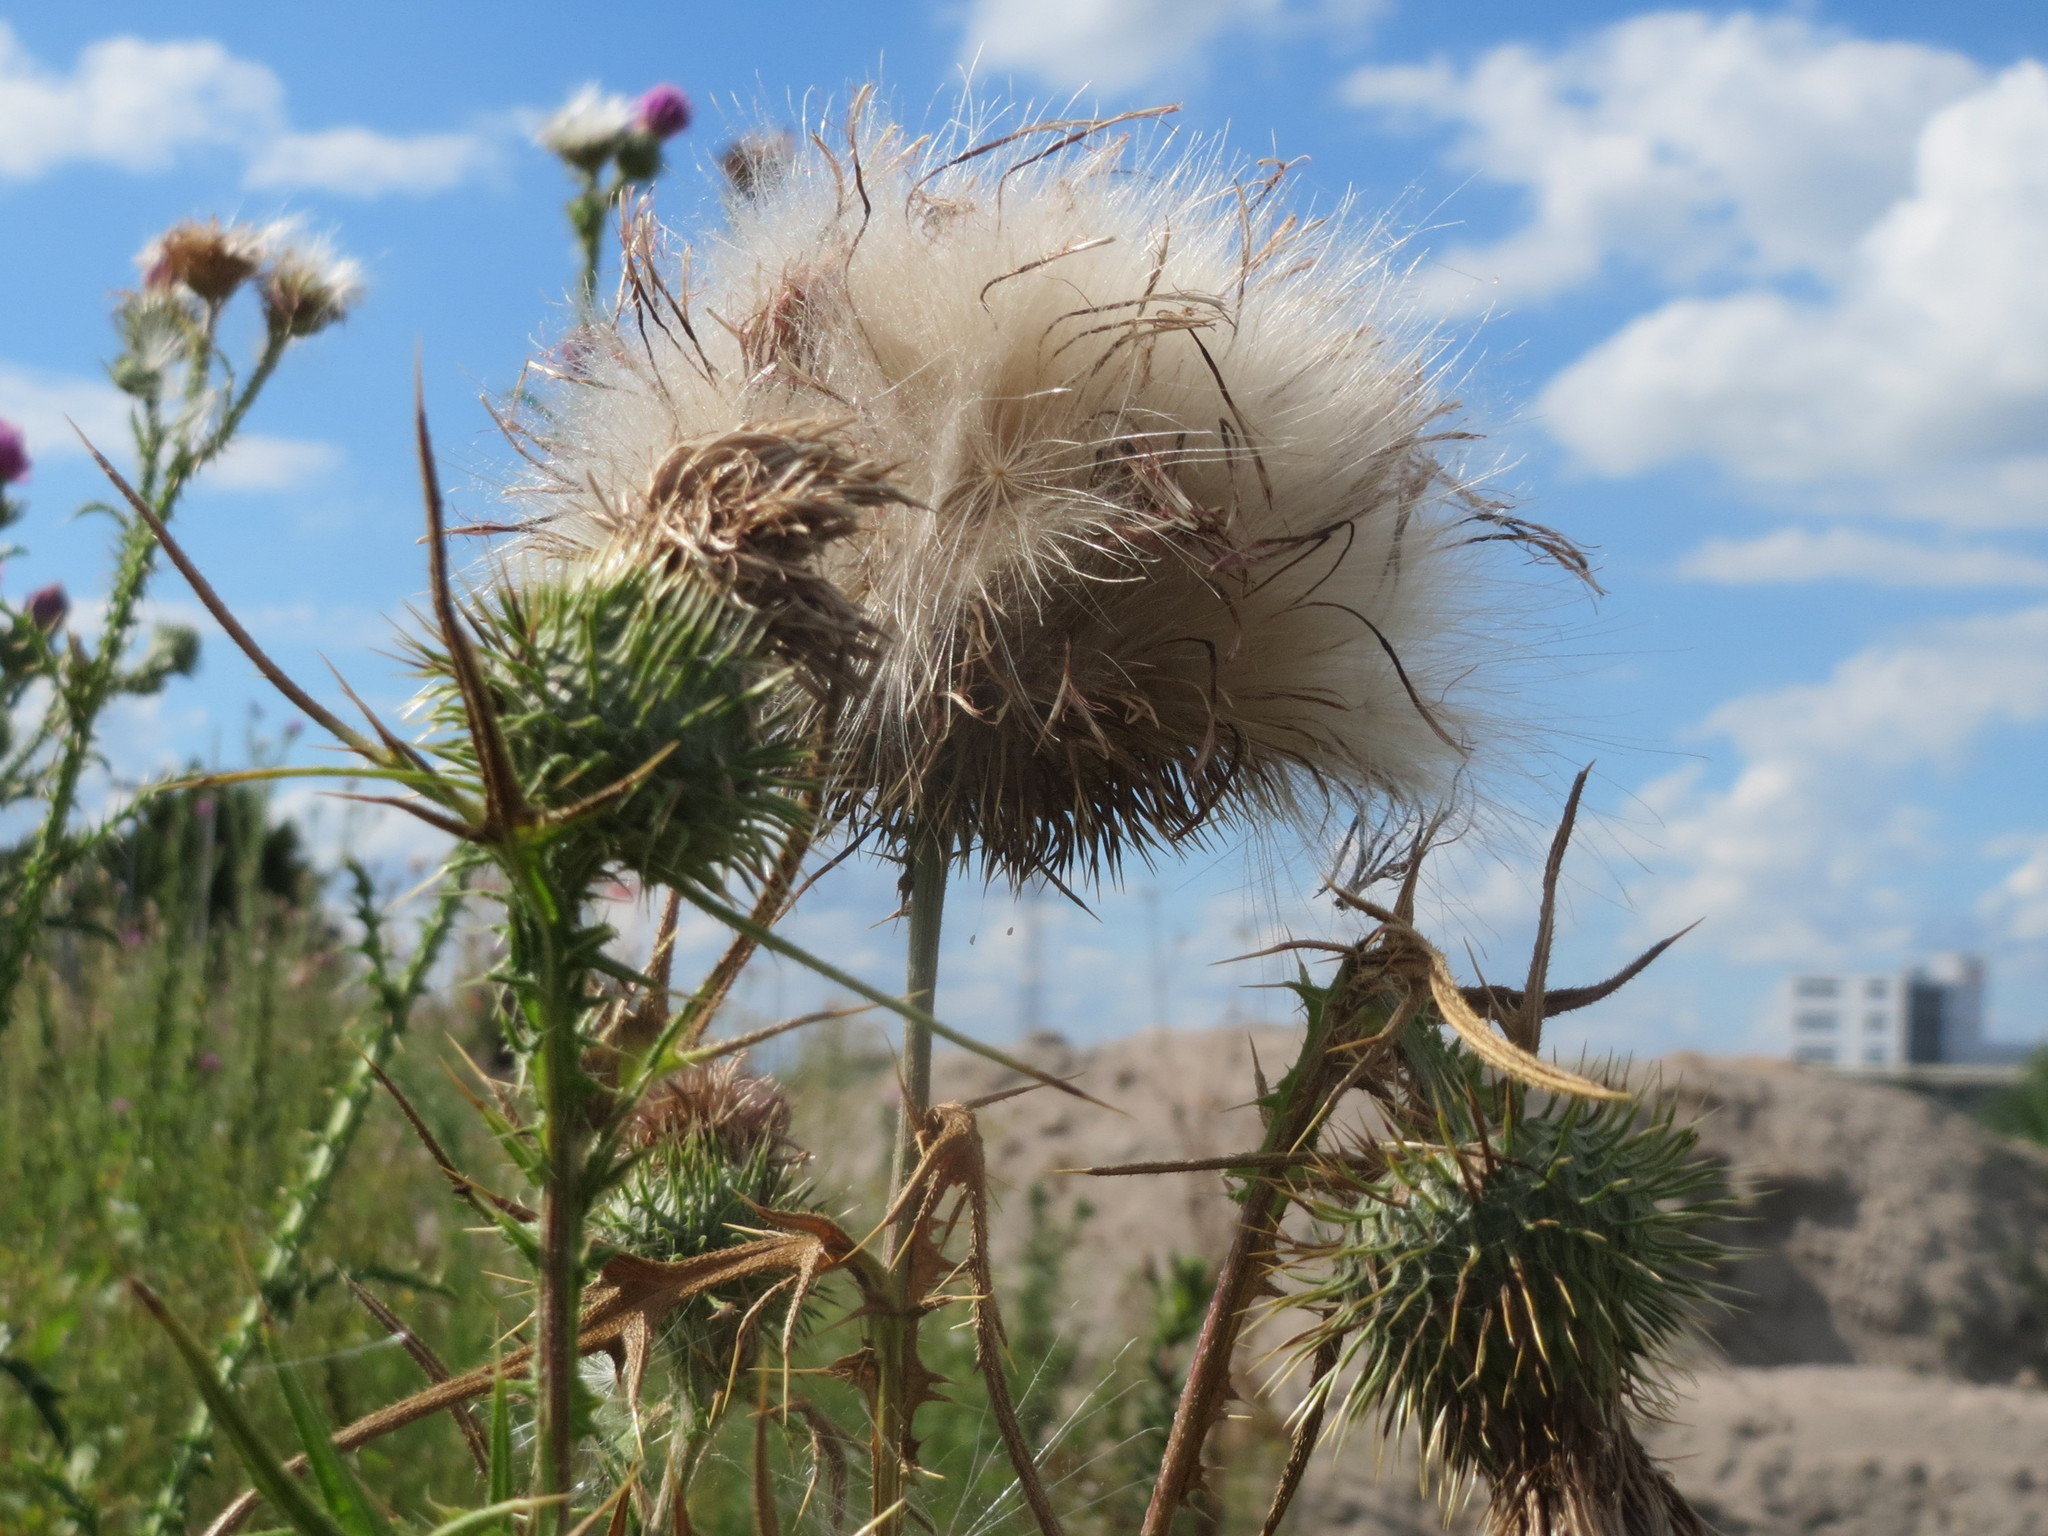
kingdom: Plantae
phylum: Tracheophyta
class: Magnoliopsida
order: Asterales
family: Asteraceae
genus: Cirsium
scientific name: Cirsium vulgare
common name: Bull thistle
